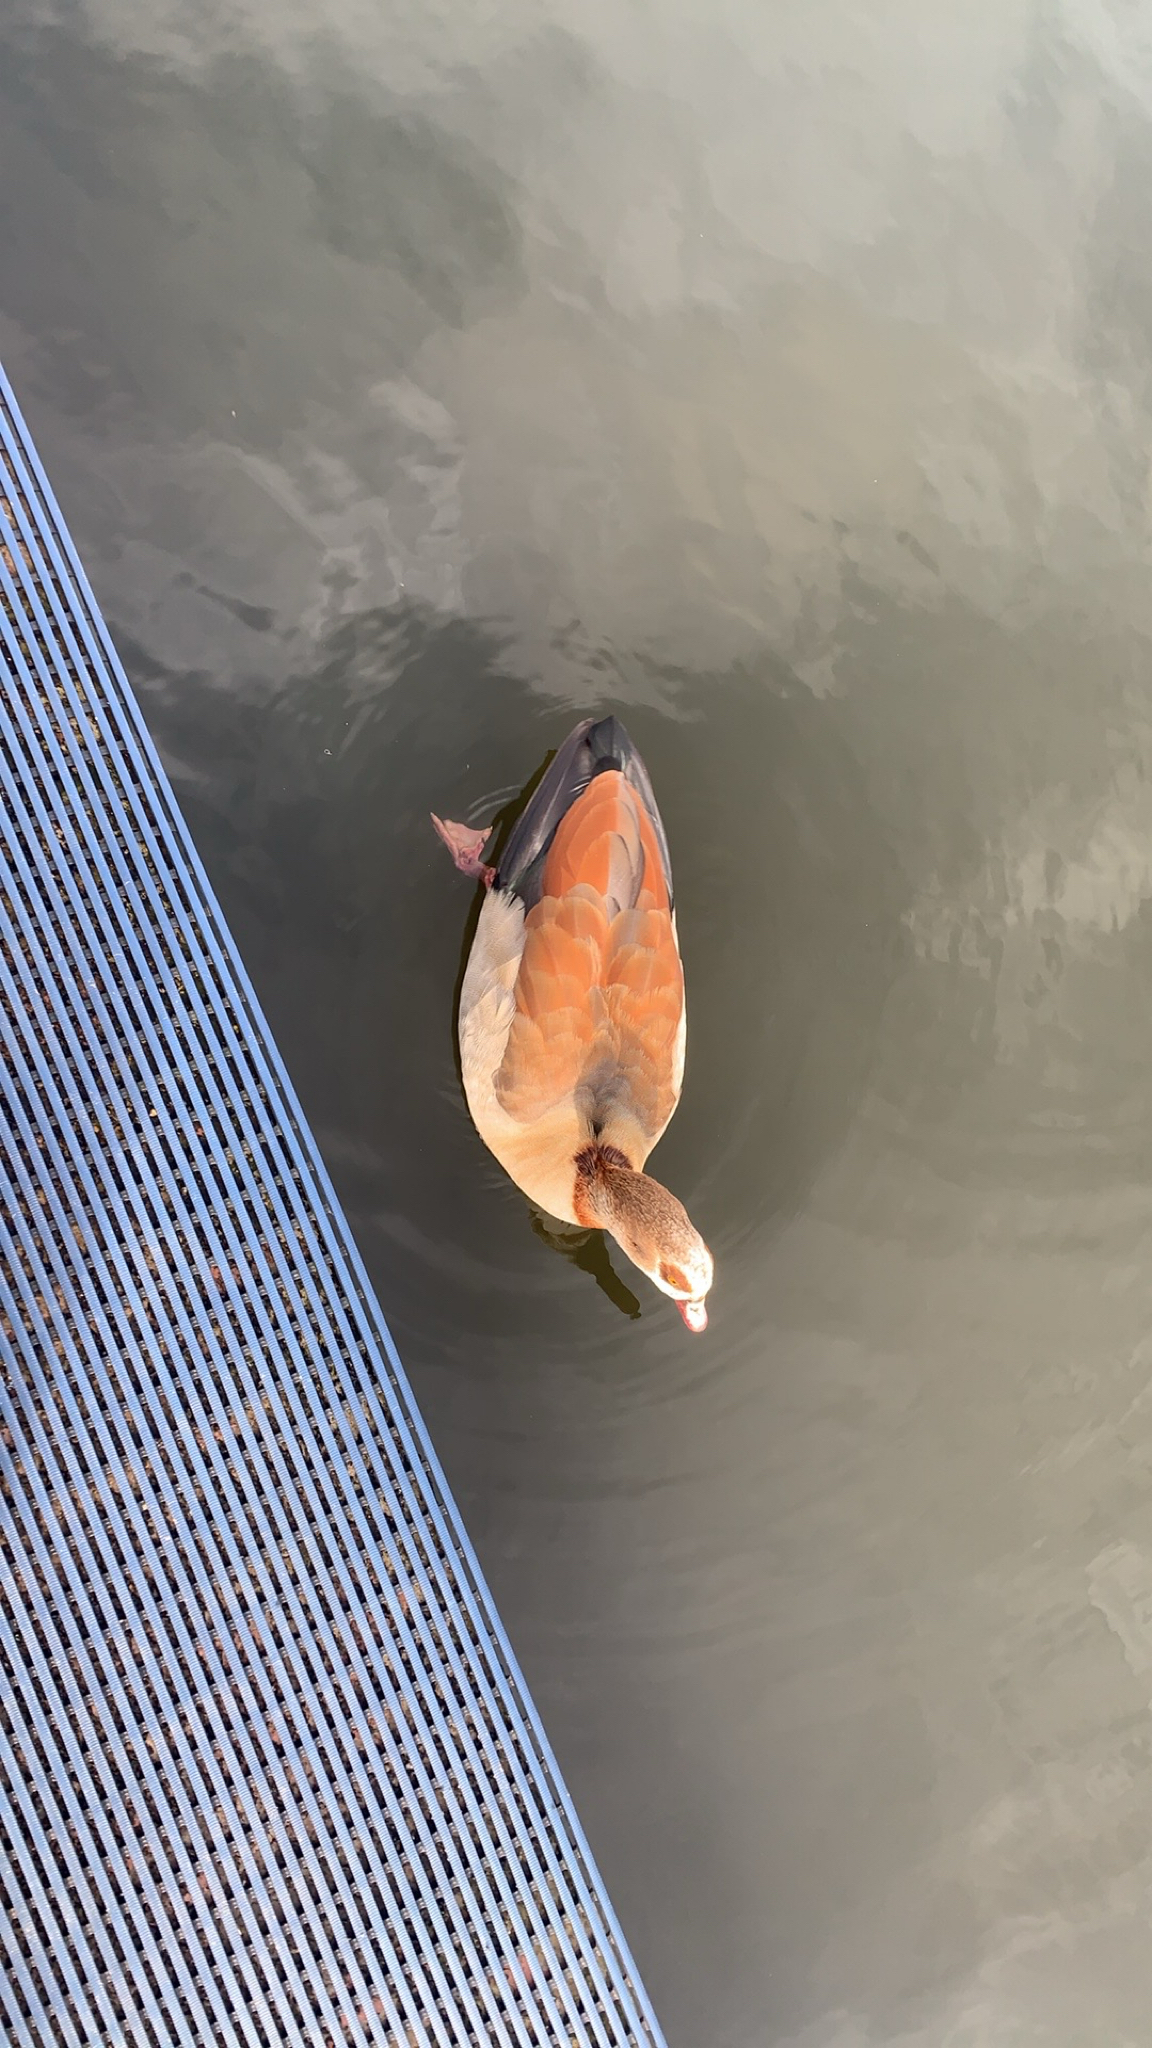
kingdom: Animalia
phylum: Chordata
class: Aves
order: Anseriformes
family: Anatidae
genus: Alopochen
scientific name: Alopochen aegyptiaca
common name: Egyptian goose
